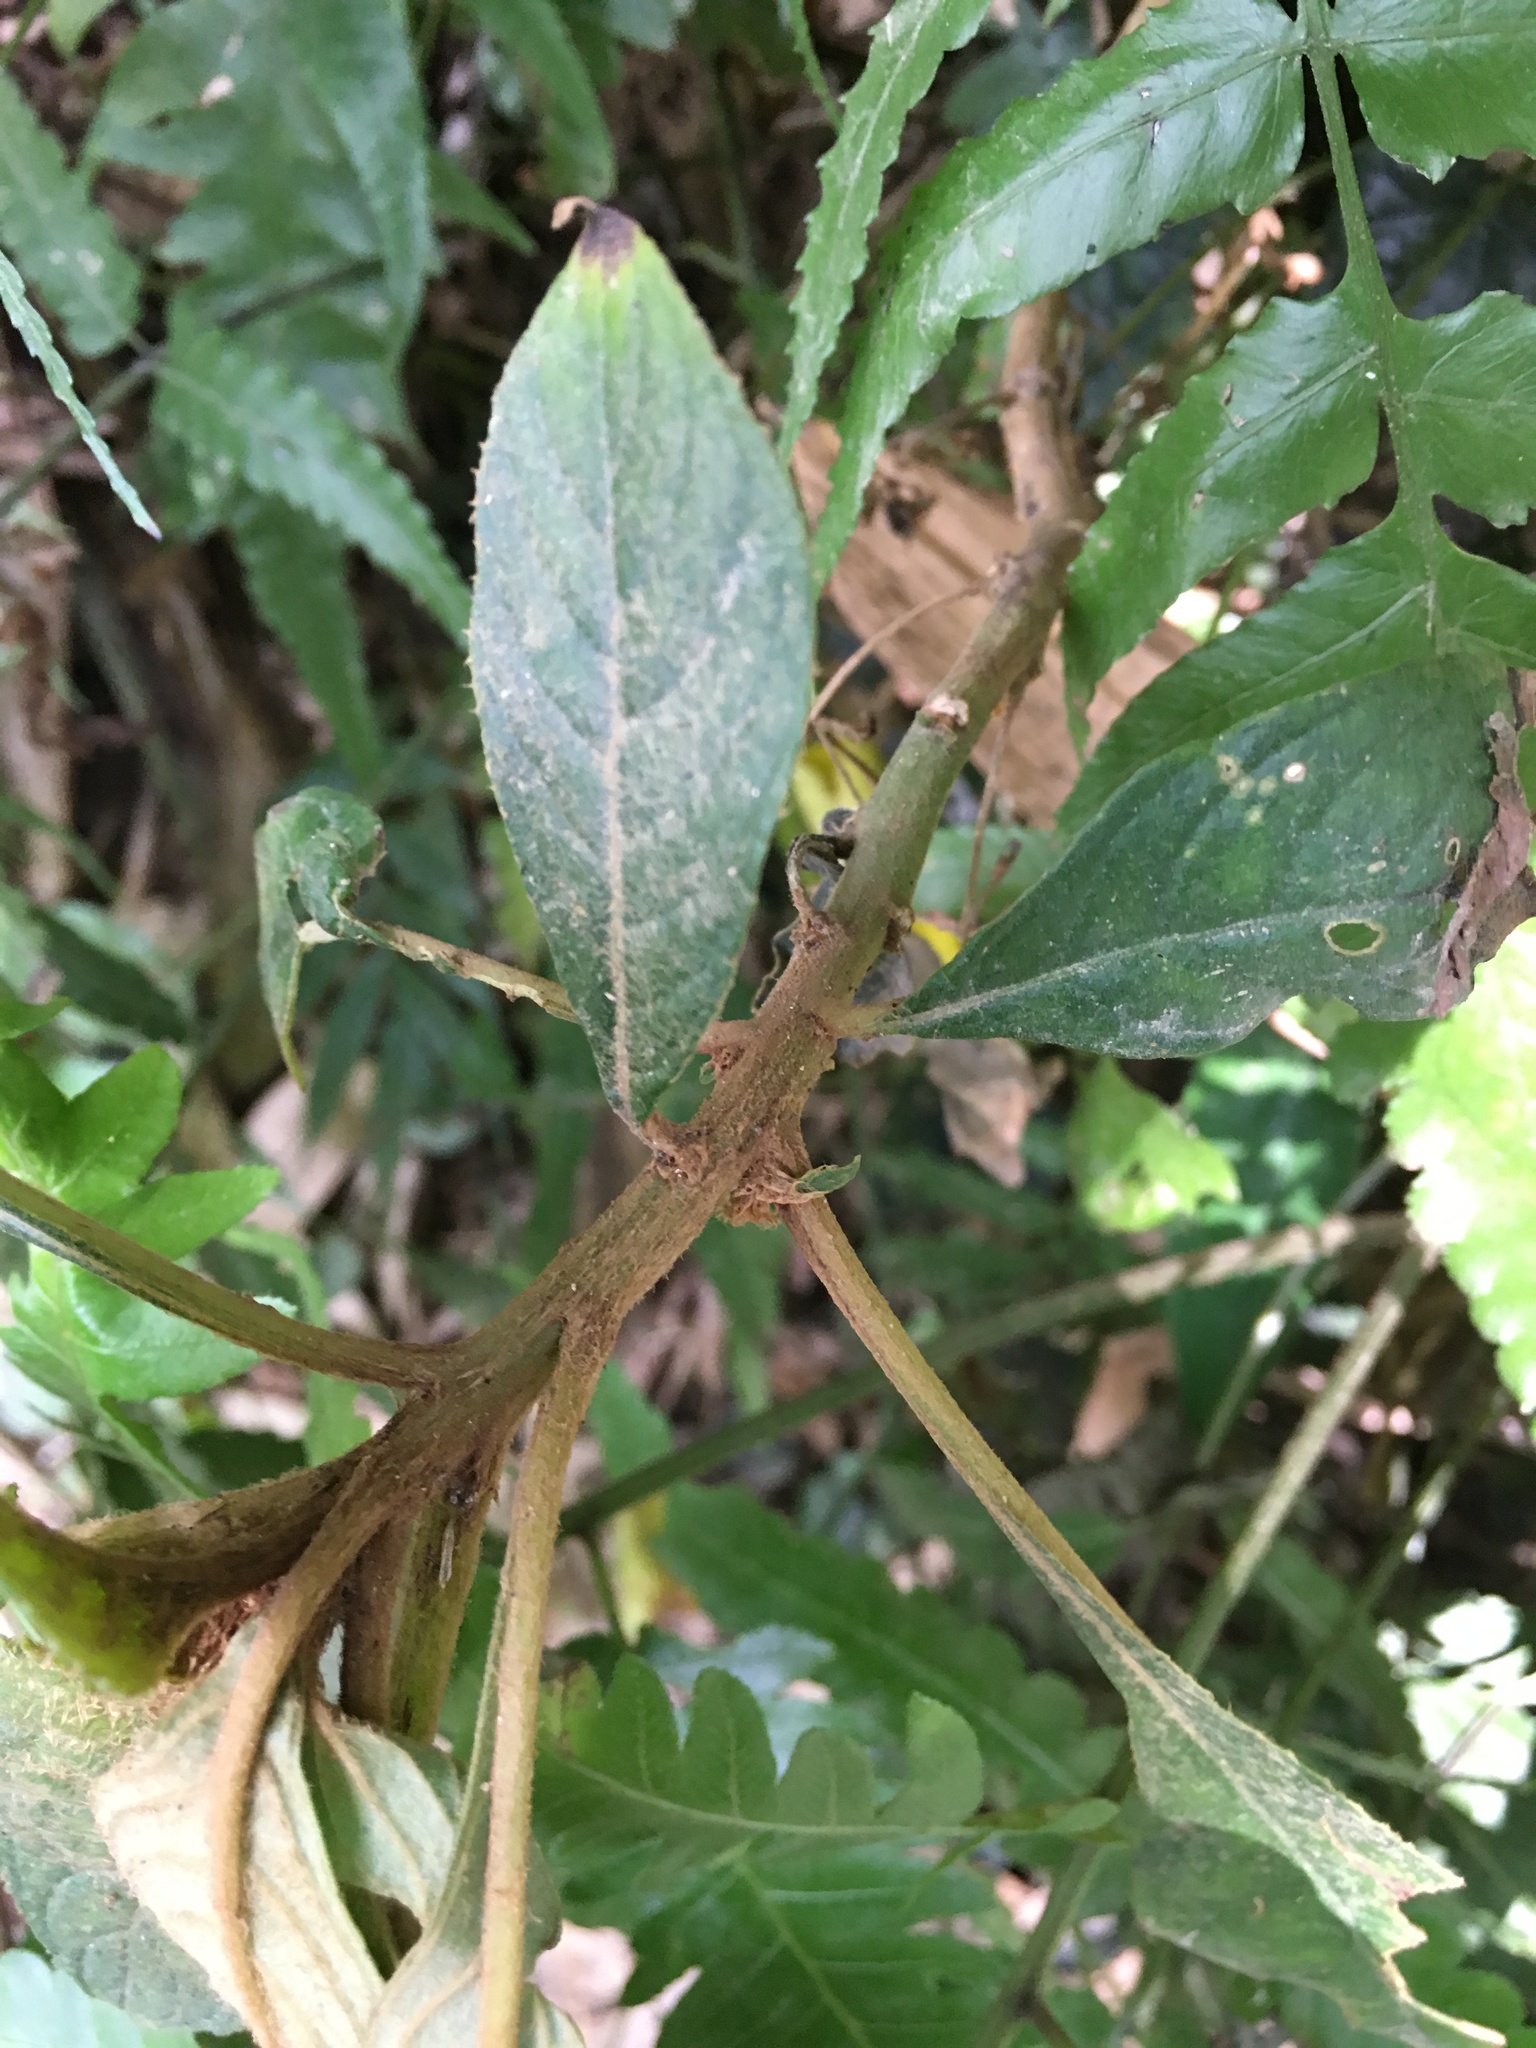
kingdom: Plantae
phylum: Tracheophyta
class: Magnoliopsida
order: Lamiales
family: Gesneriaceae
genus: Rhynchotechum
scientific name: Rhynchotechum discolor
